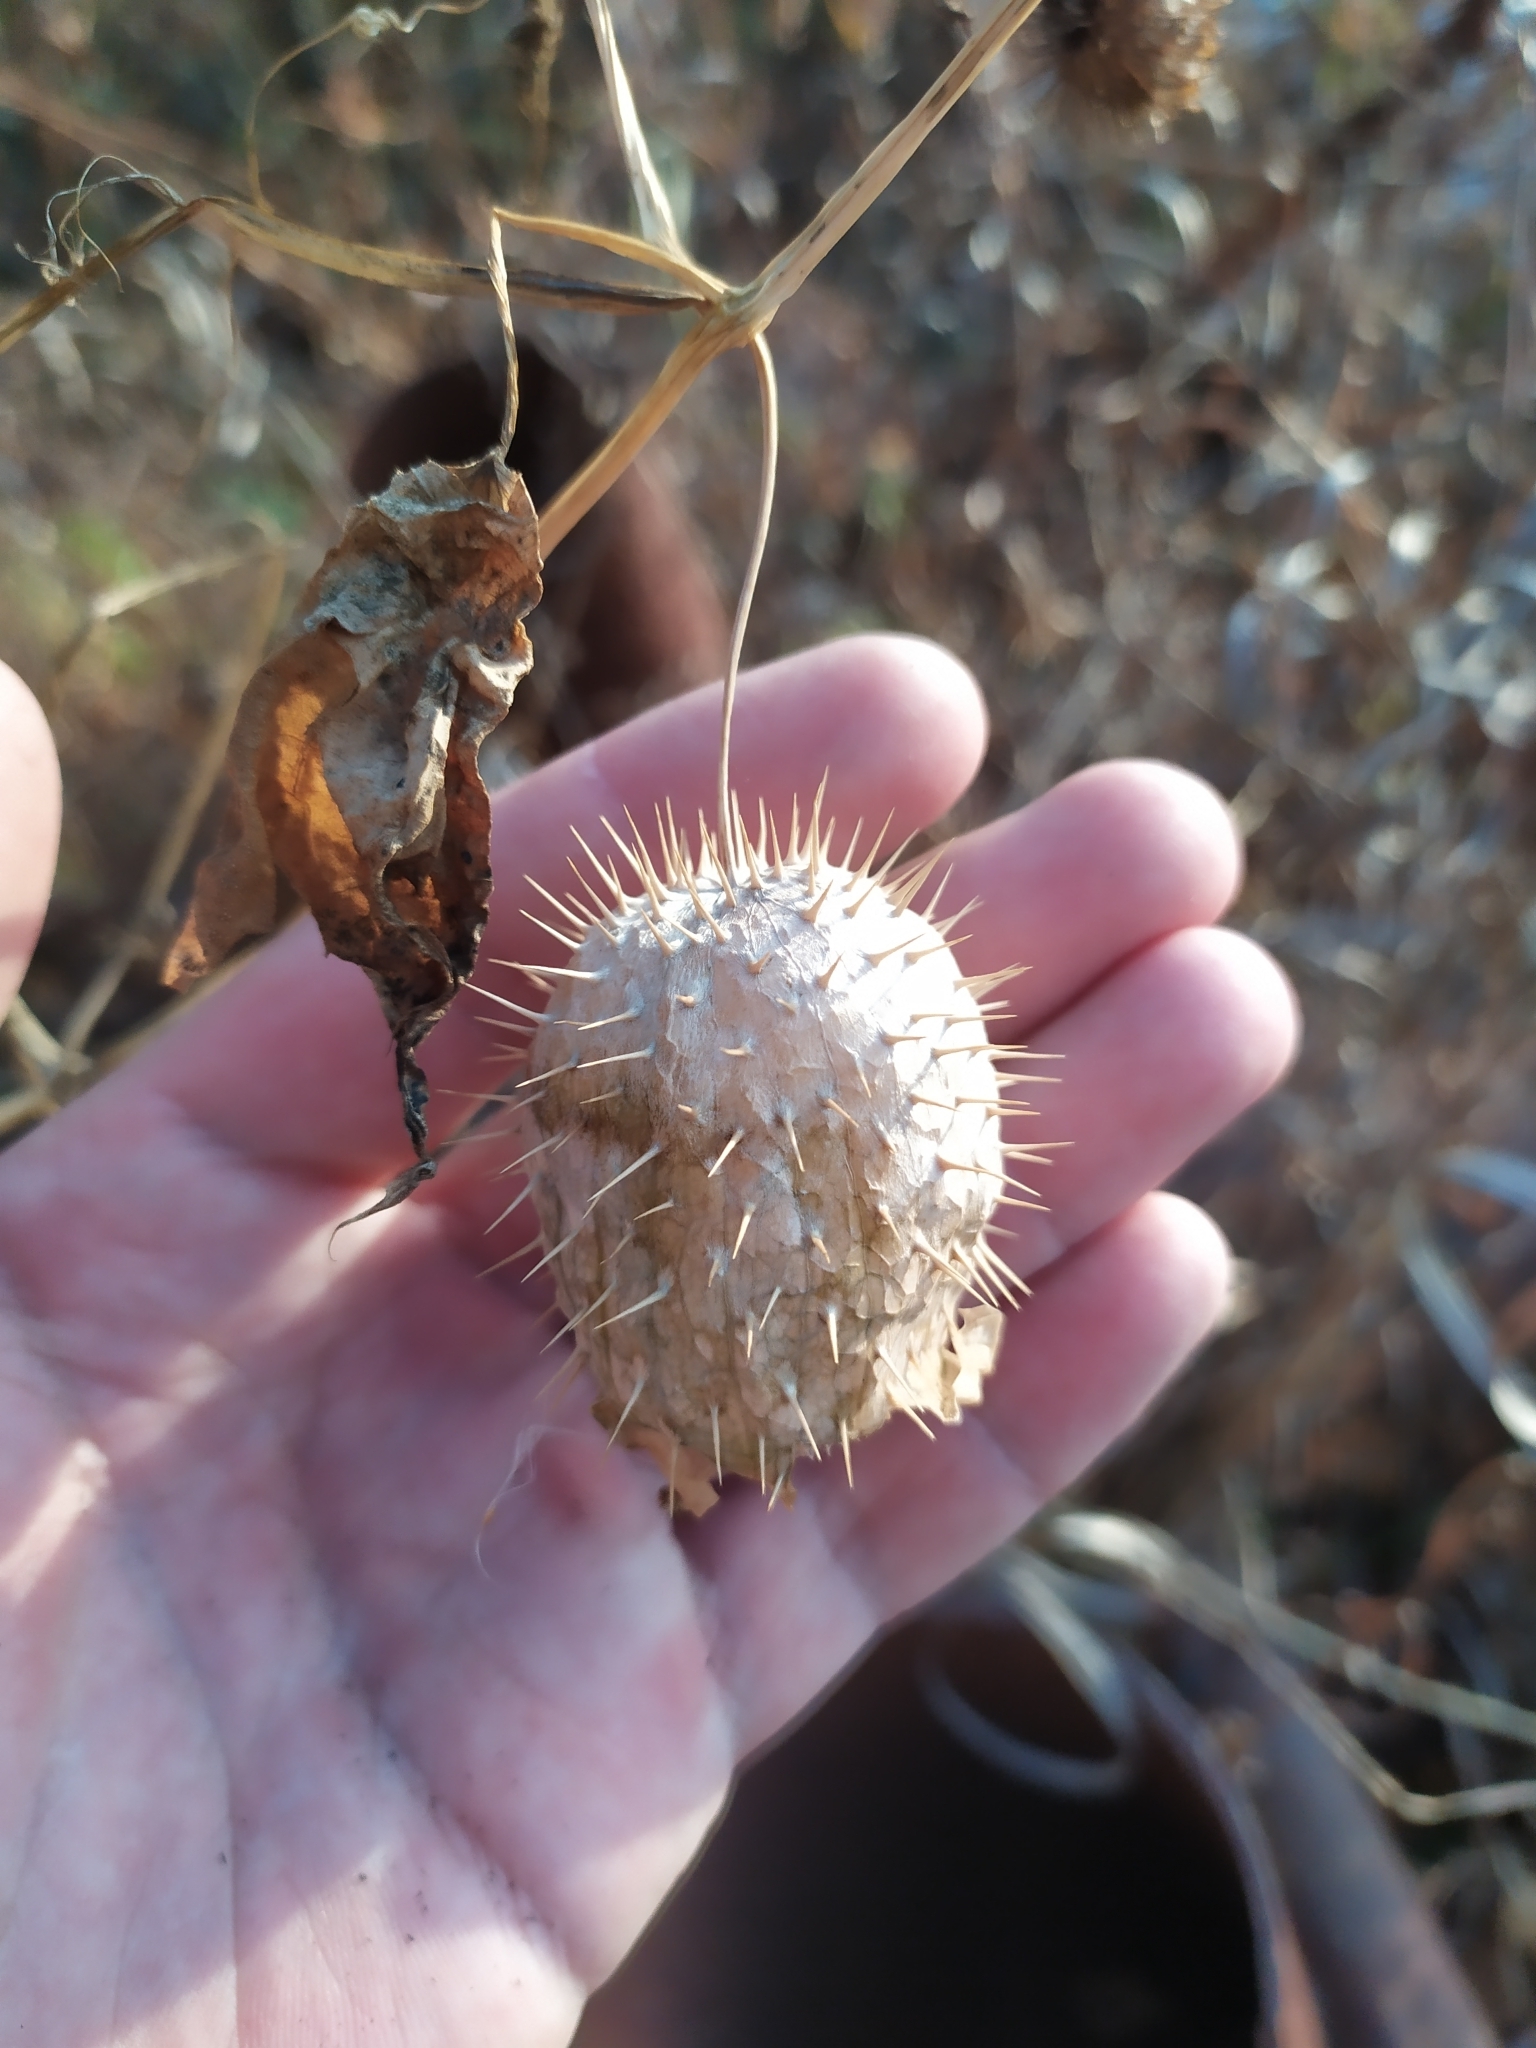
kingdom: Plantae
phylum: Tracheophyta
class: Magnoliopsida
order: Cucurbitales
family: Cucurbitaceae
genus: Echinocystis
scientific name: Echinocystis lobata
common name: Wild cucumber
